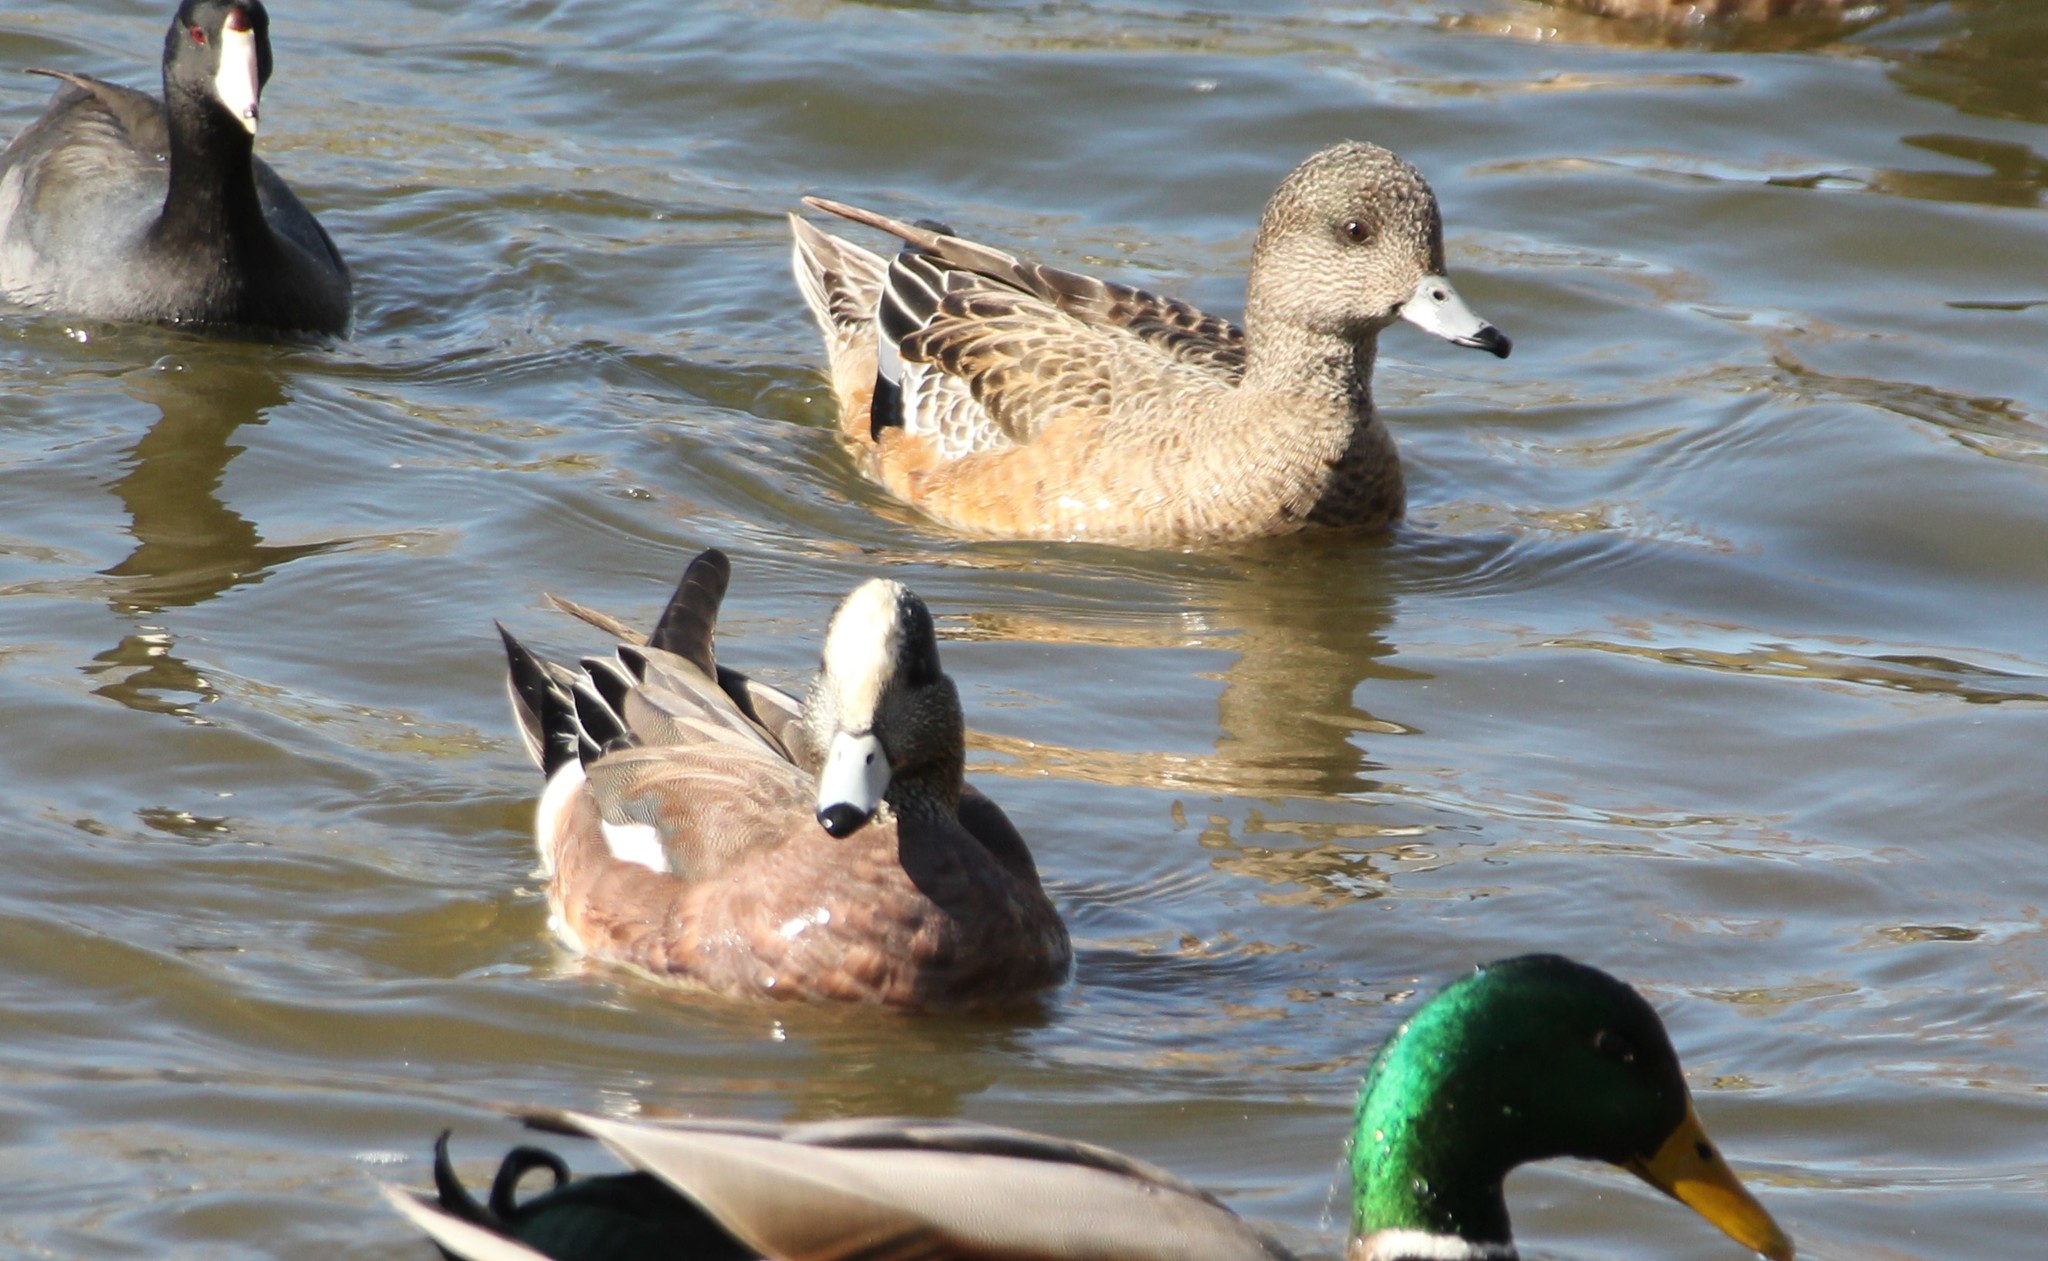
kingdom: Animalia
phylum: Chordata
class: Aves
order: Anseriformes
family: Anatidae
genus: Mareca
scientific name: Mareca americana
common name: American wigeon
